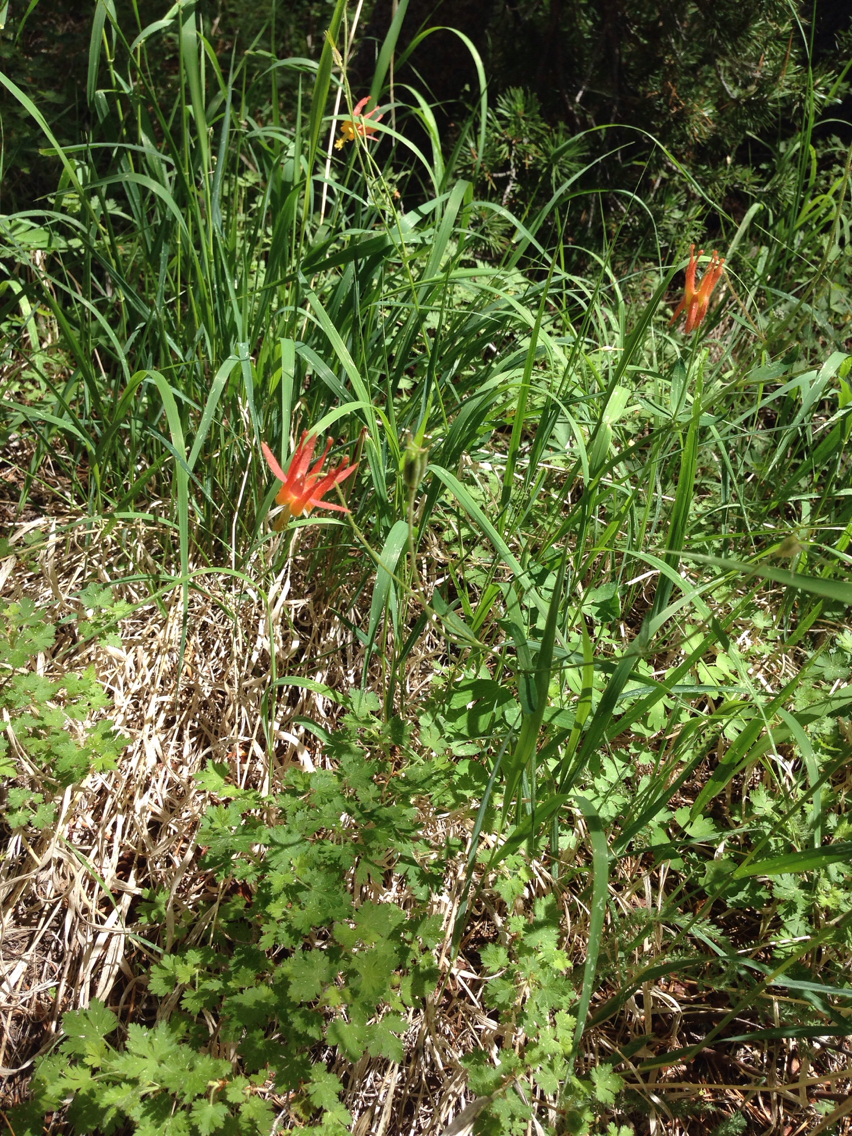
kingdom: Plantae
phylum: Tracheophyta
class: Magnoliopsida
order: Ranunculales
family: Ranunculaceae
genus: Aquilegia
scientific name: Aquilegia formosa
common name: Sitka columbine
